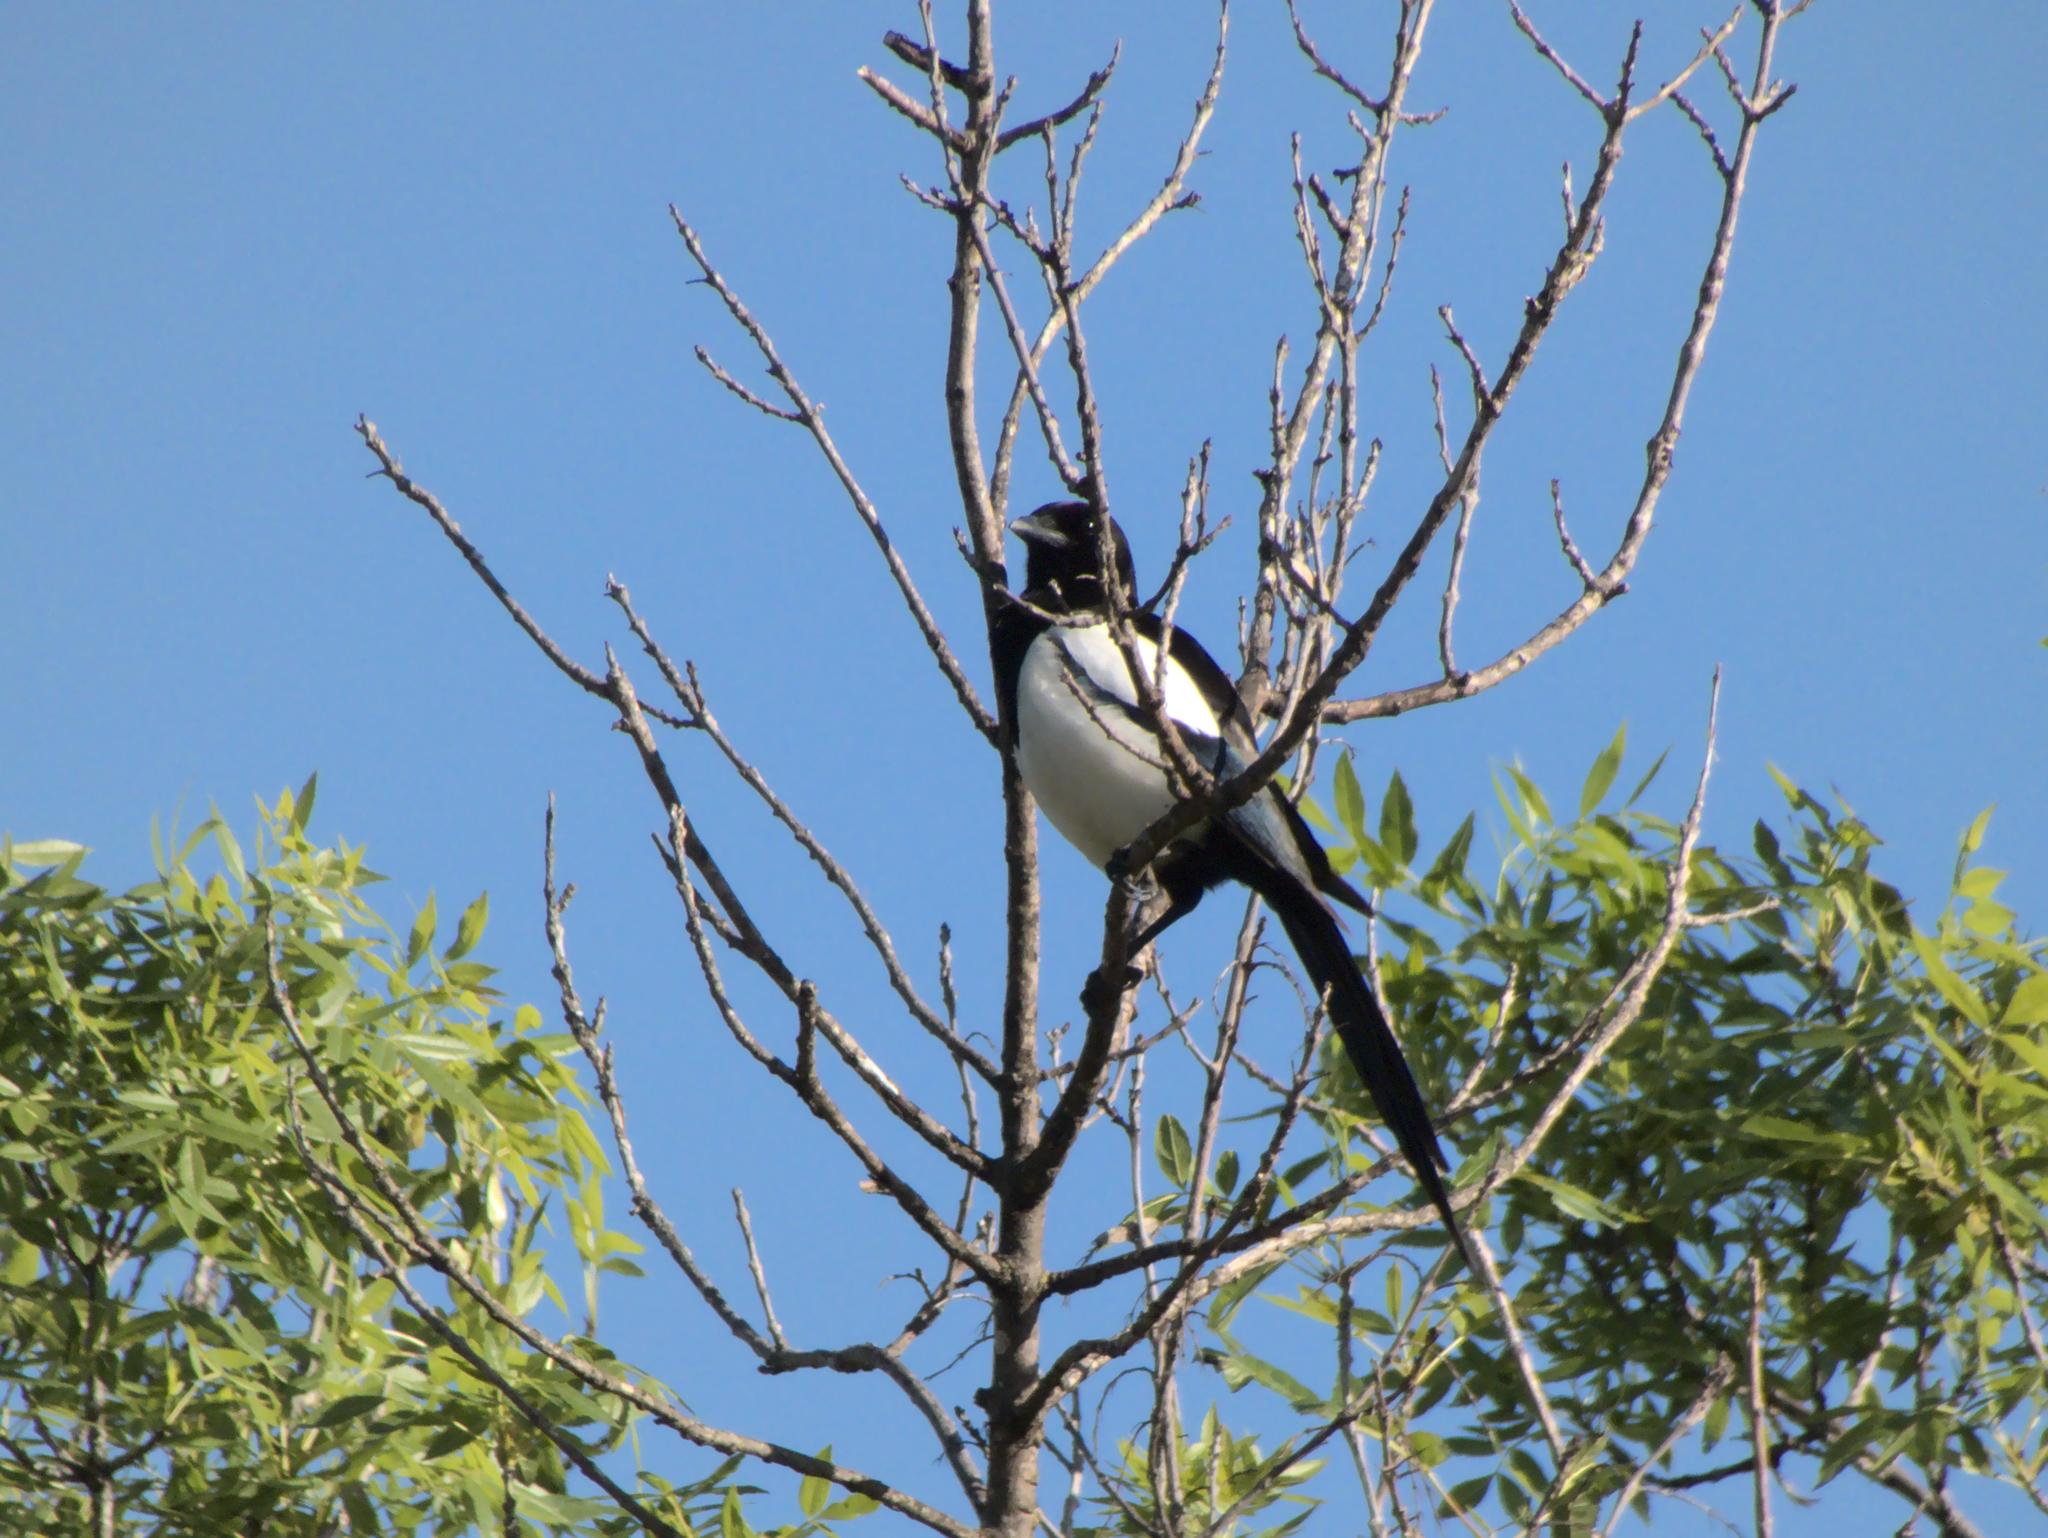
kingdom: Animalia
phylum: Chordata
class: Aves
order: Passeriformes
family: Corvidae
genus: Pica
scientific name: Pica pica
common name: Eurasian magpie
